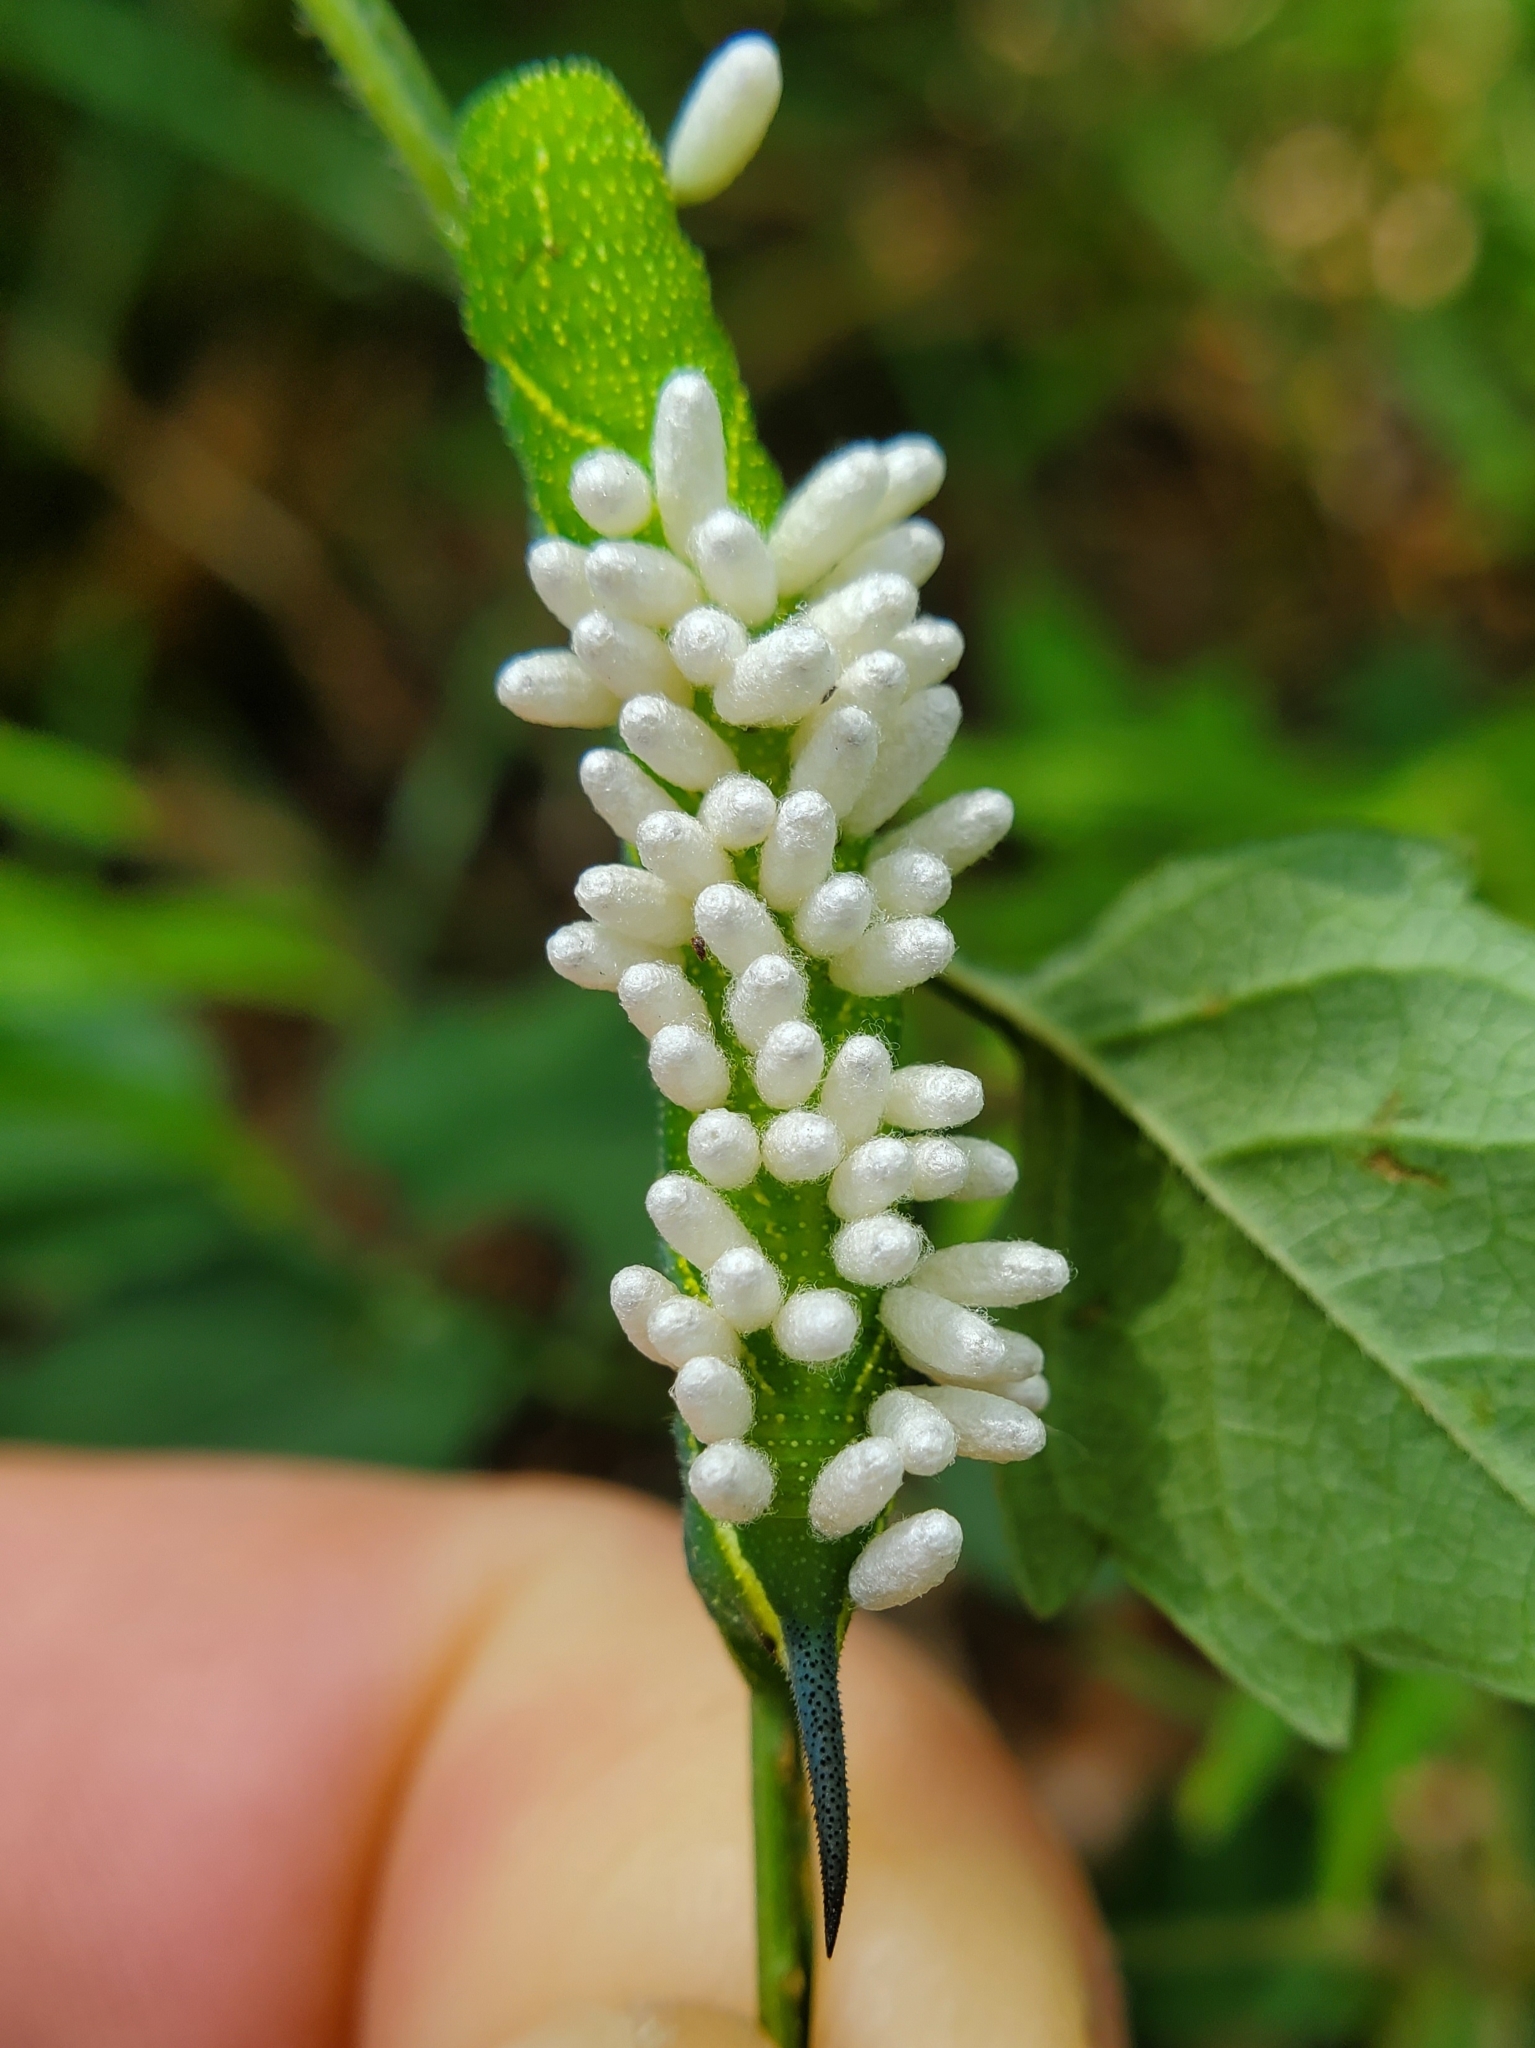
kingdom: Animalia
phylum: Arthropoda
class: Insecta
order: Lepidoptera
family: Sphingidae
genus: Paratrea
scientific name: Paratrea plebeja
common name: Plebian sphinx
